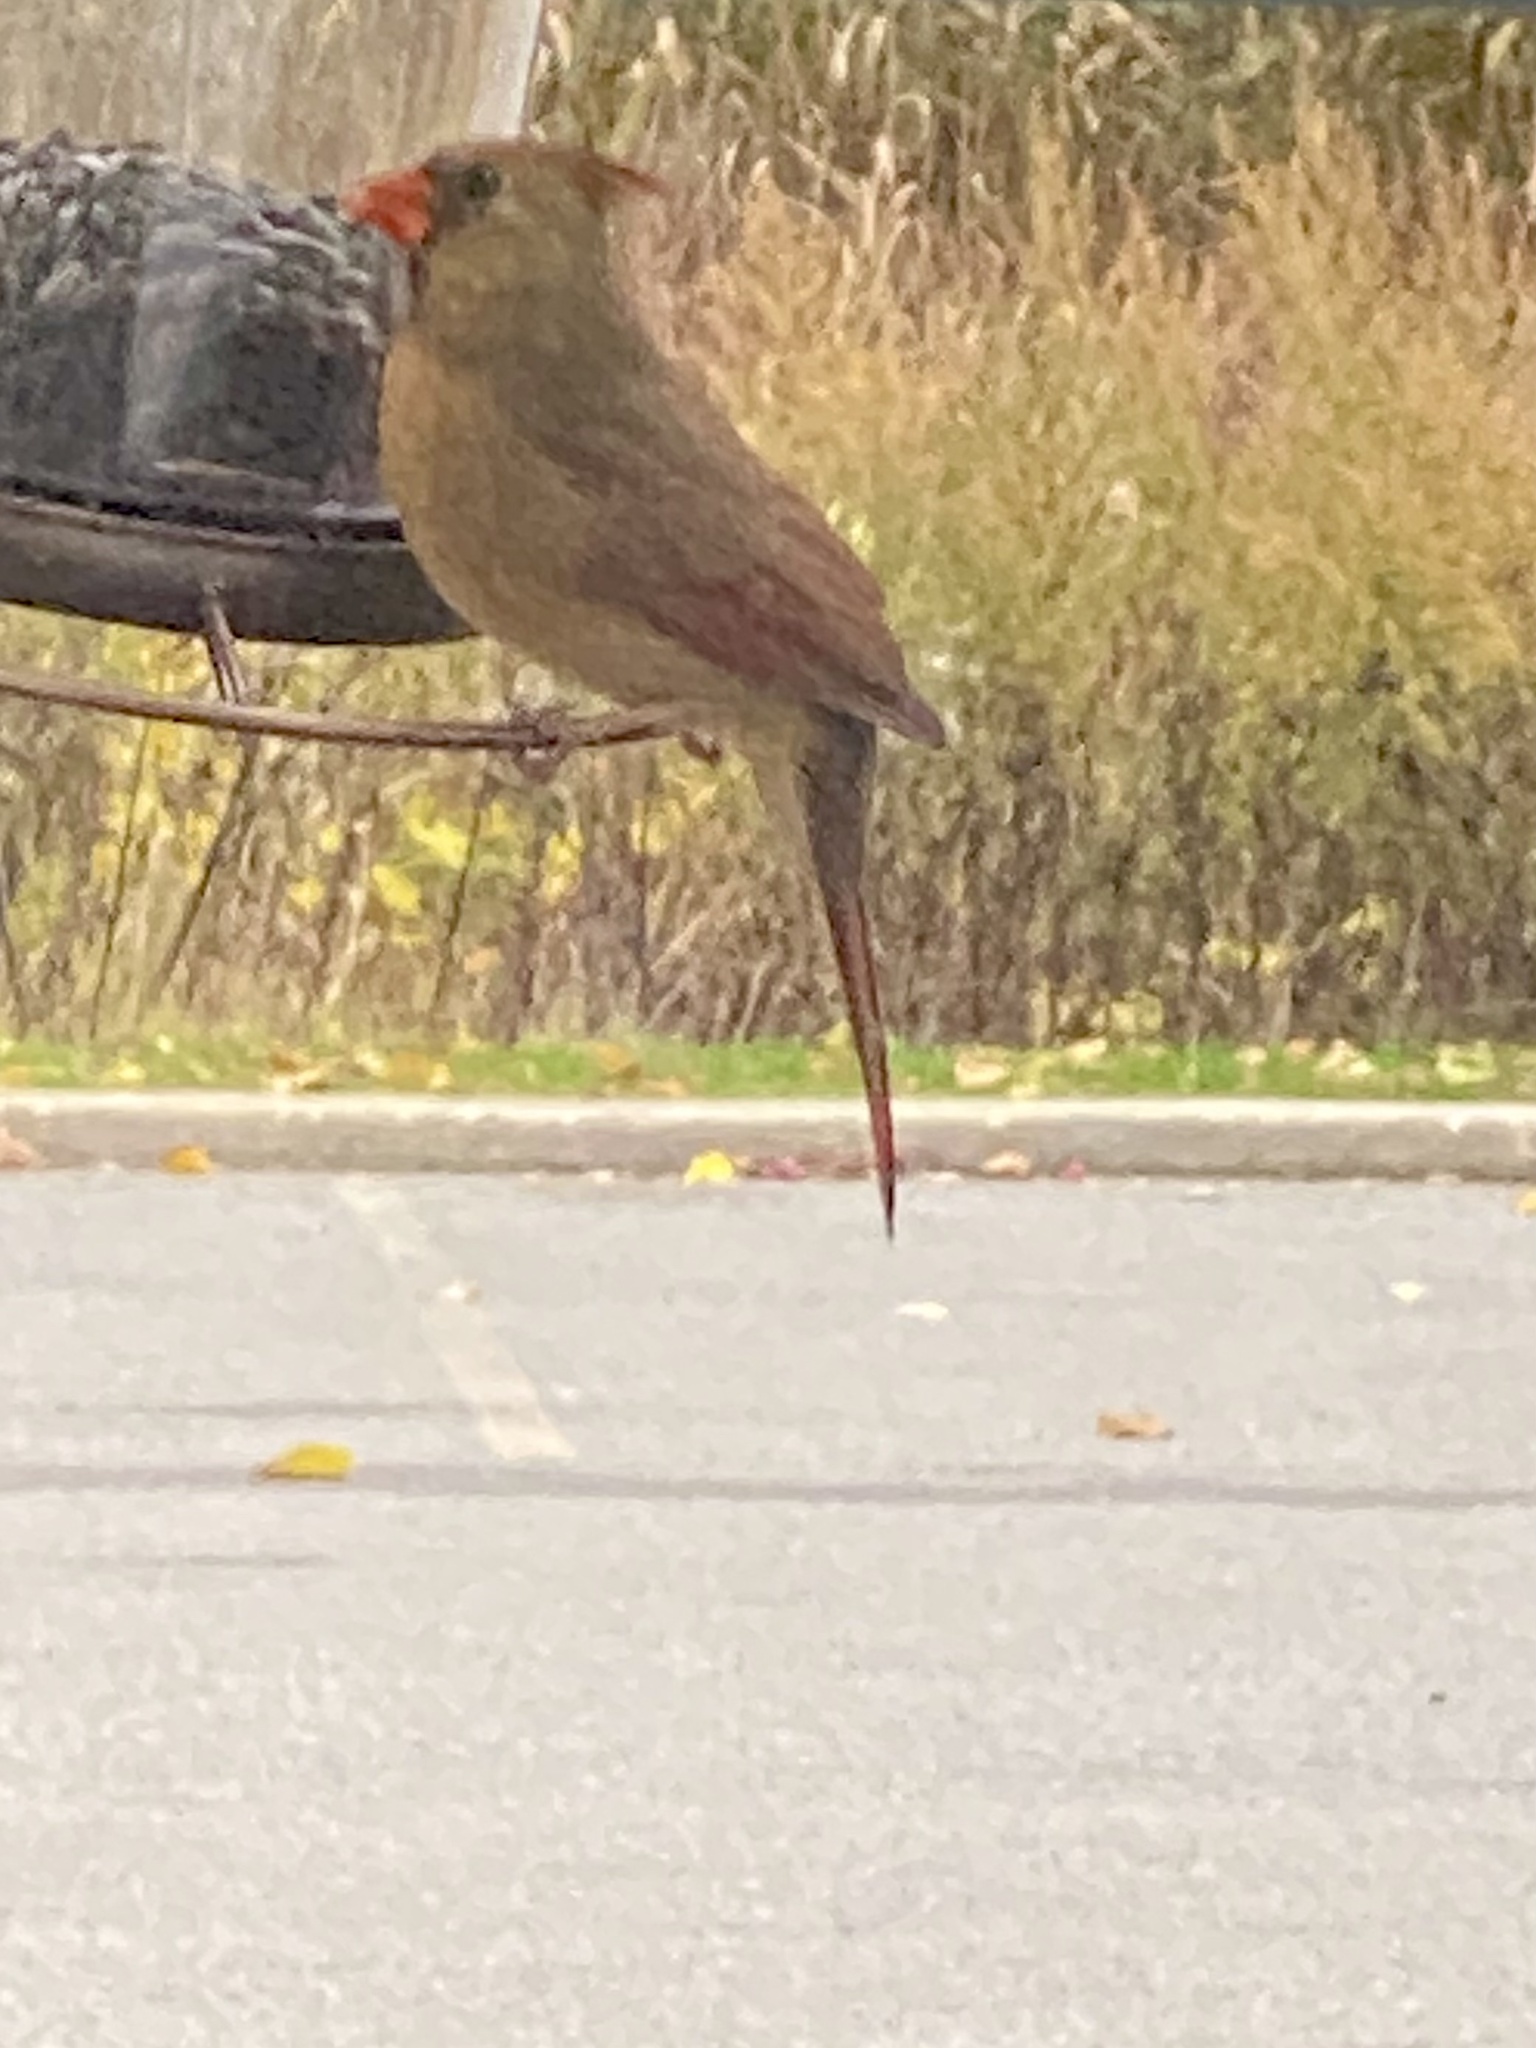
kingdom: Animalia
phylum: Chordata
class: Aves
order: Passeriformes
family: Cardinalidae
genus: Cardinalis
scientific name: Cardinalis cardinalis
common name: Northern cardinal
